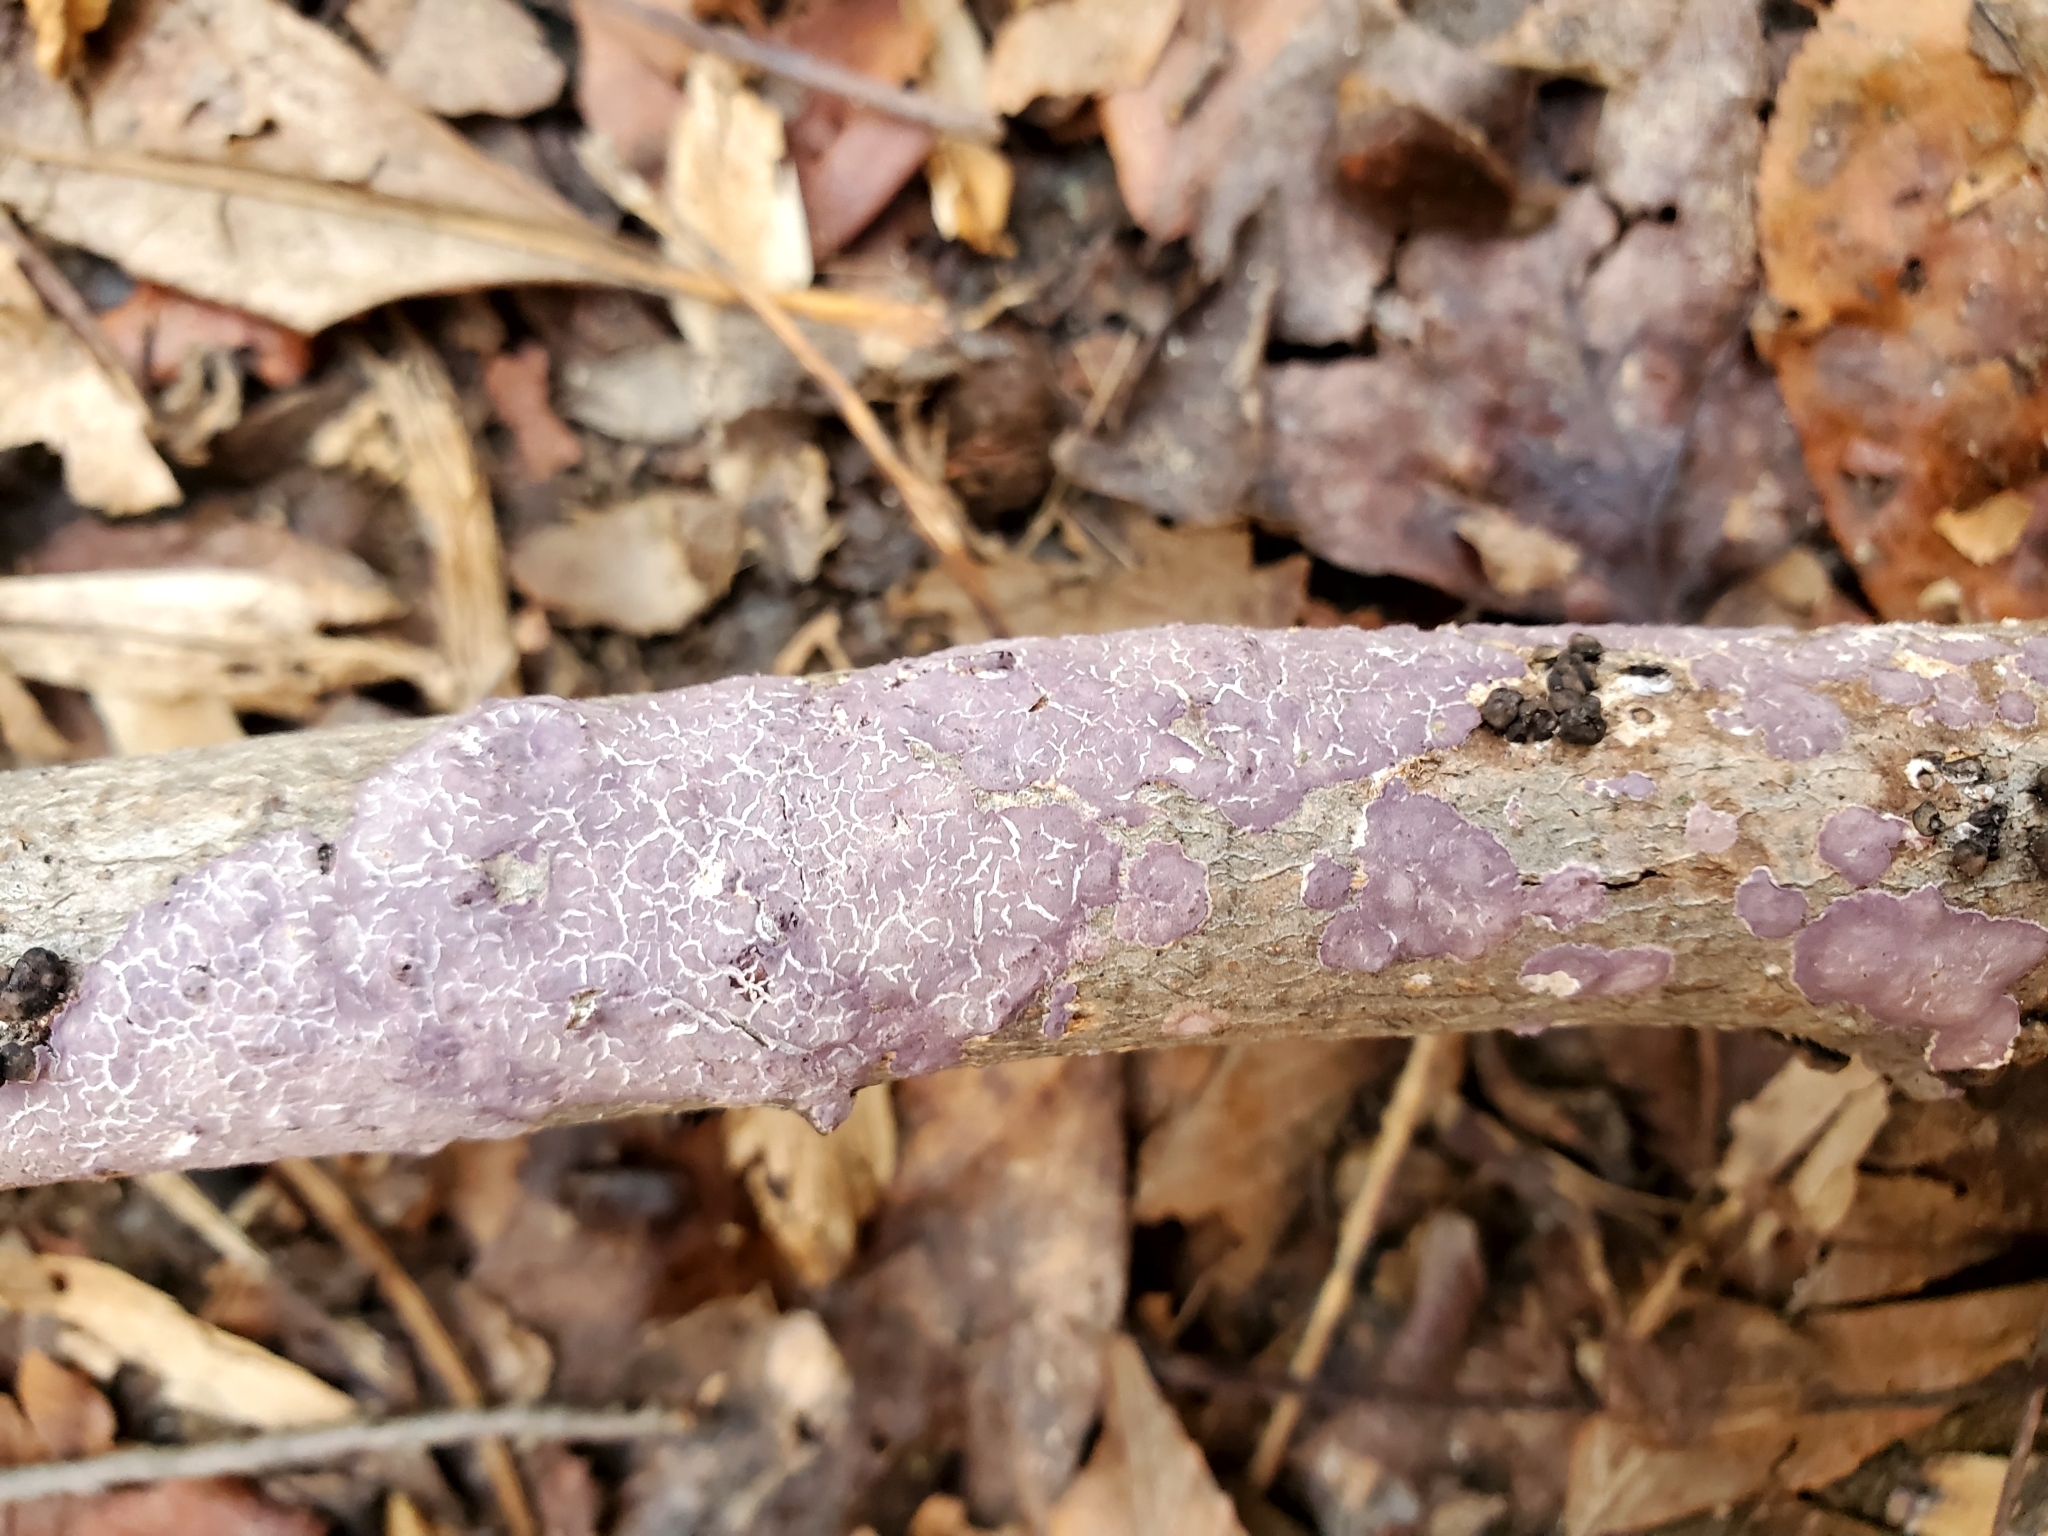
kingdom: Fungi
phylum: Basidiomycota
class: Agaricomycetes
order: Polyporales
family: Phanerochaetaceae
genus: Phlebiopsis
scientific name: Phlebiopsis crassa
